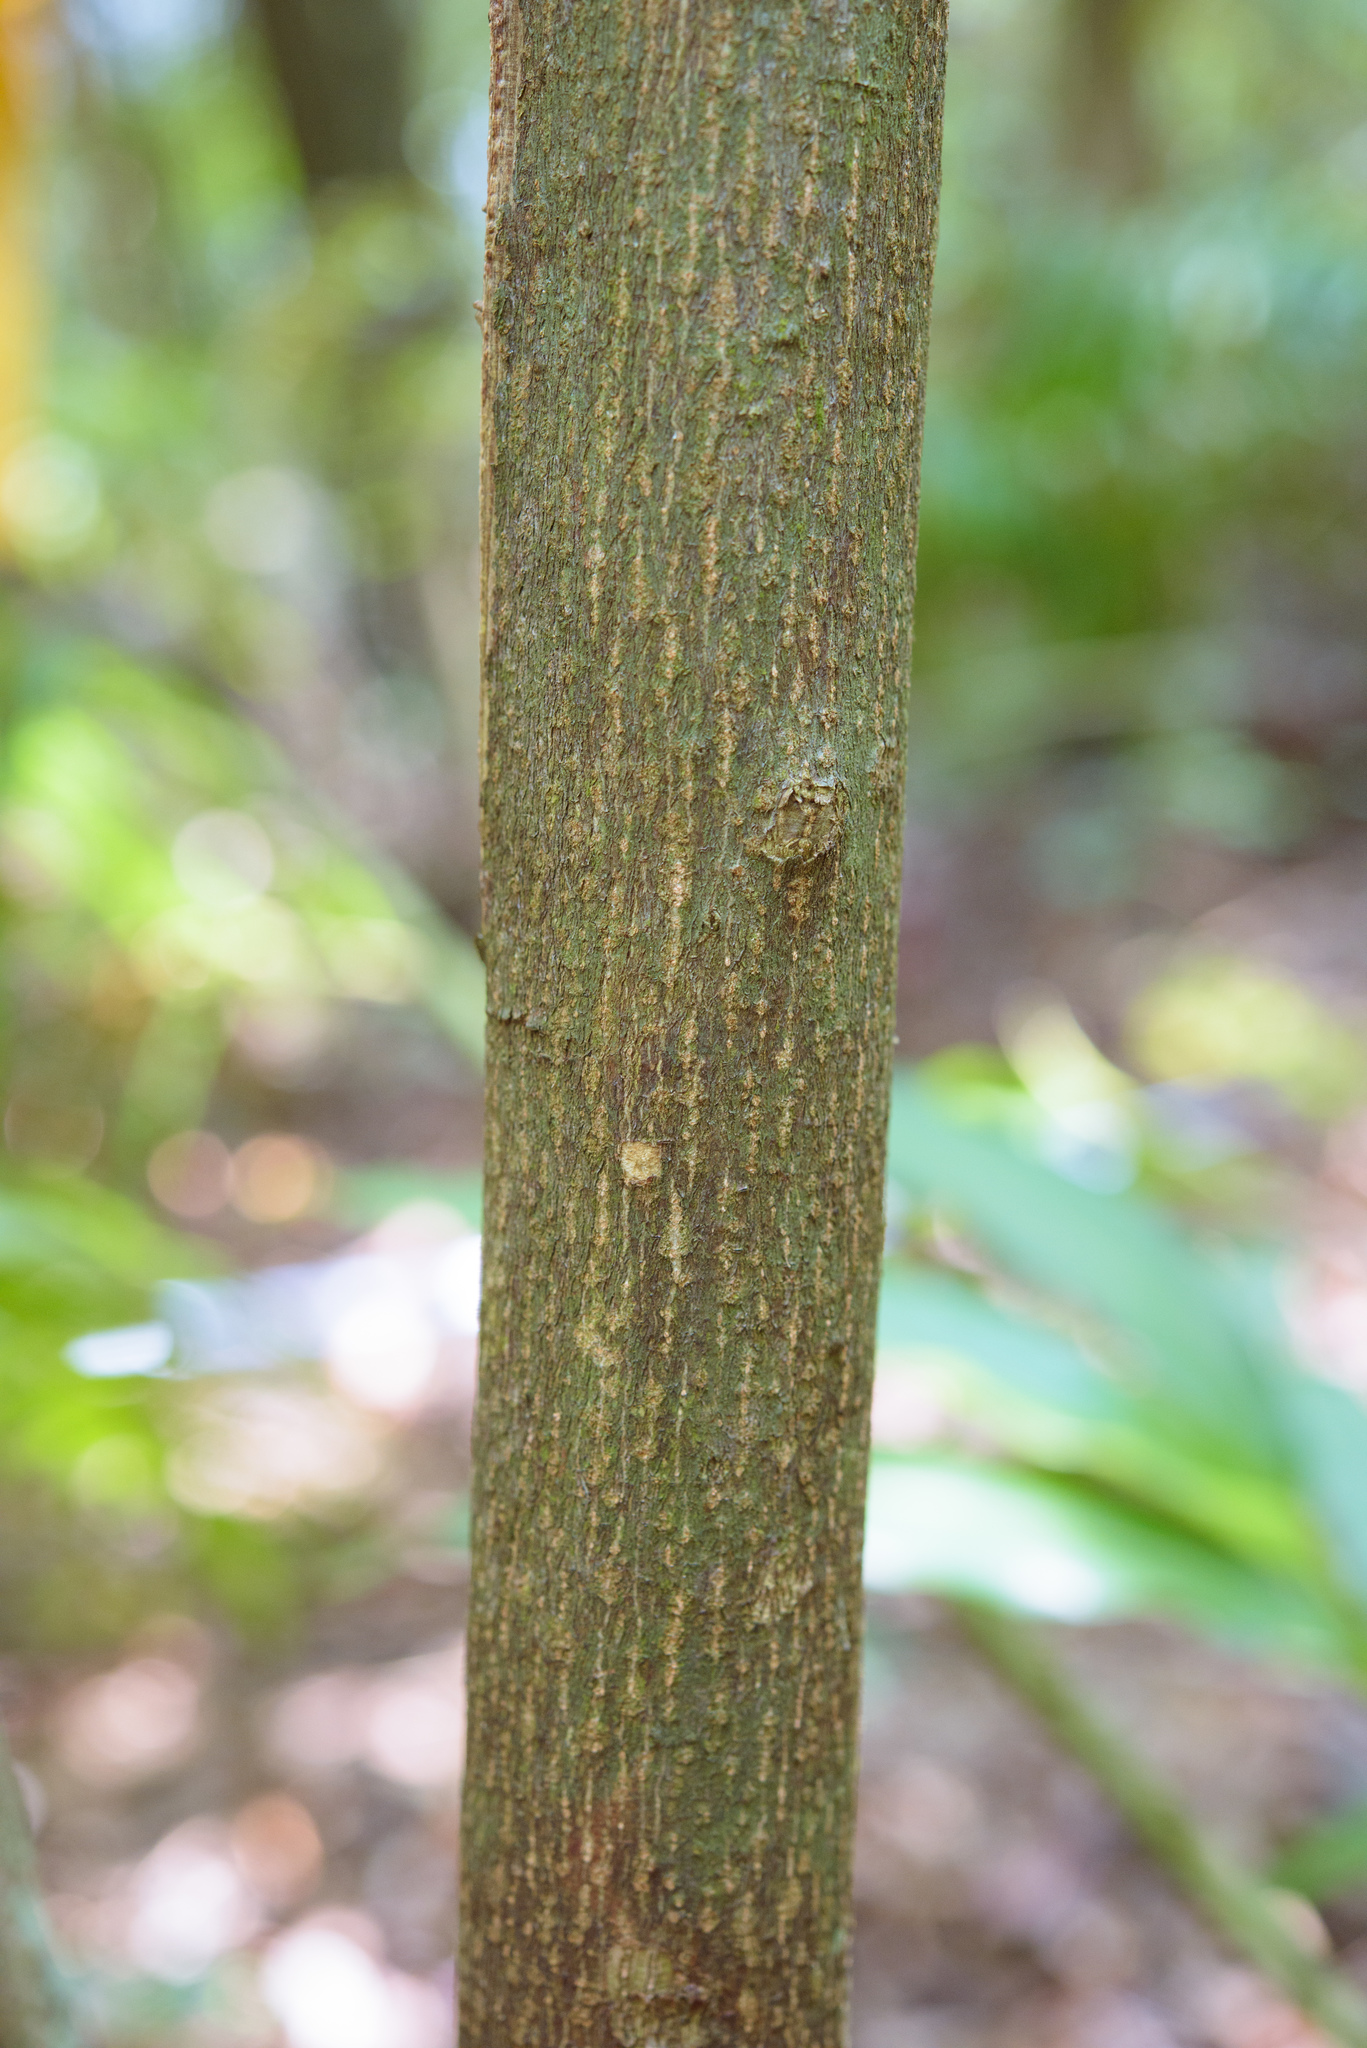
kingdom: Plantae
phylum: Tracheophyta
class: Magnoliopsida
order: Oxalidales
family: Elaeocarpaceae
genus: Elaeocarpus
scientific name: Elaeocarpus japonicus
